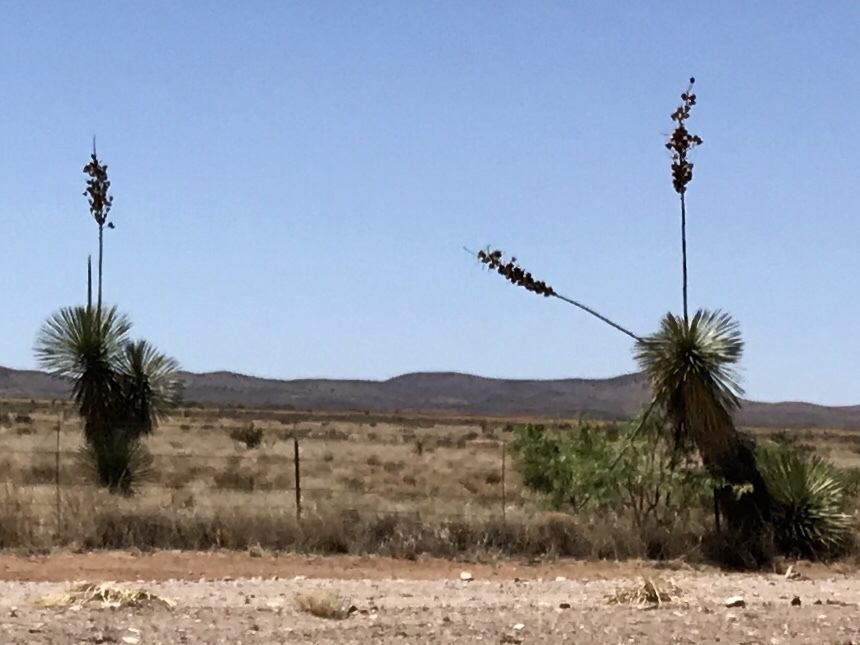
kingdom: Plantae
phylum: Tracheophyta
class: Liliopsida
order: Asparagales
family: Asparagaceae
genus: Yucca
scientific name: Yucca elata
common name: Palmella
